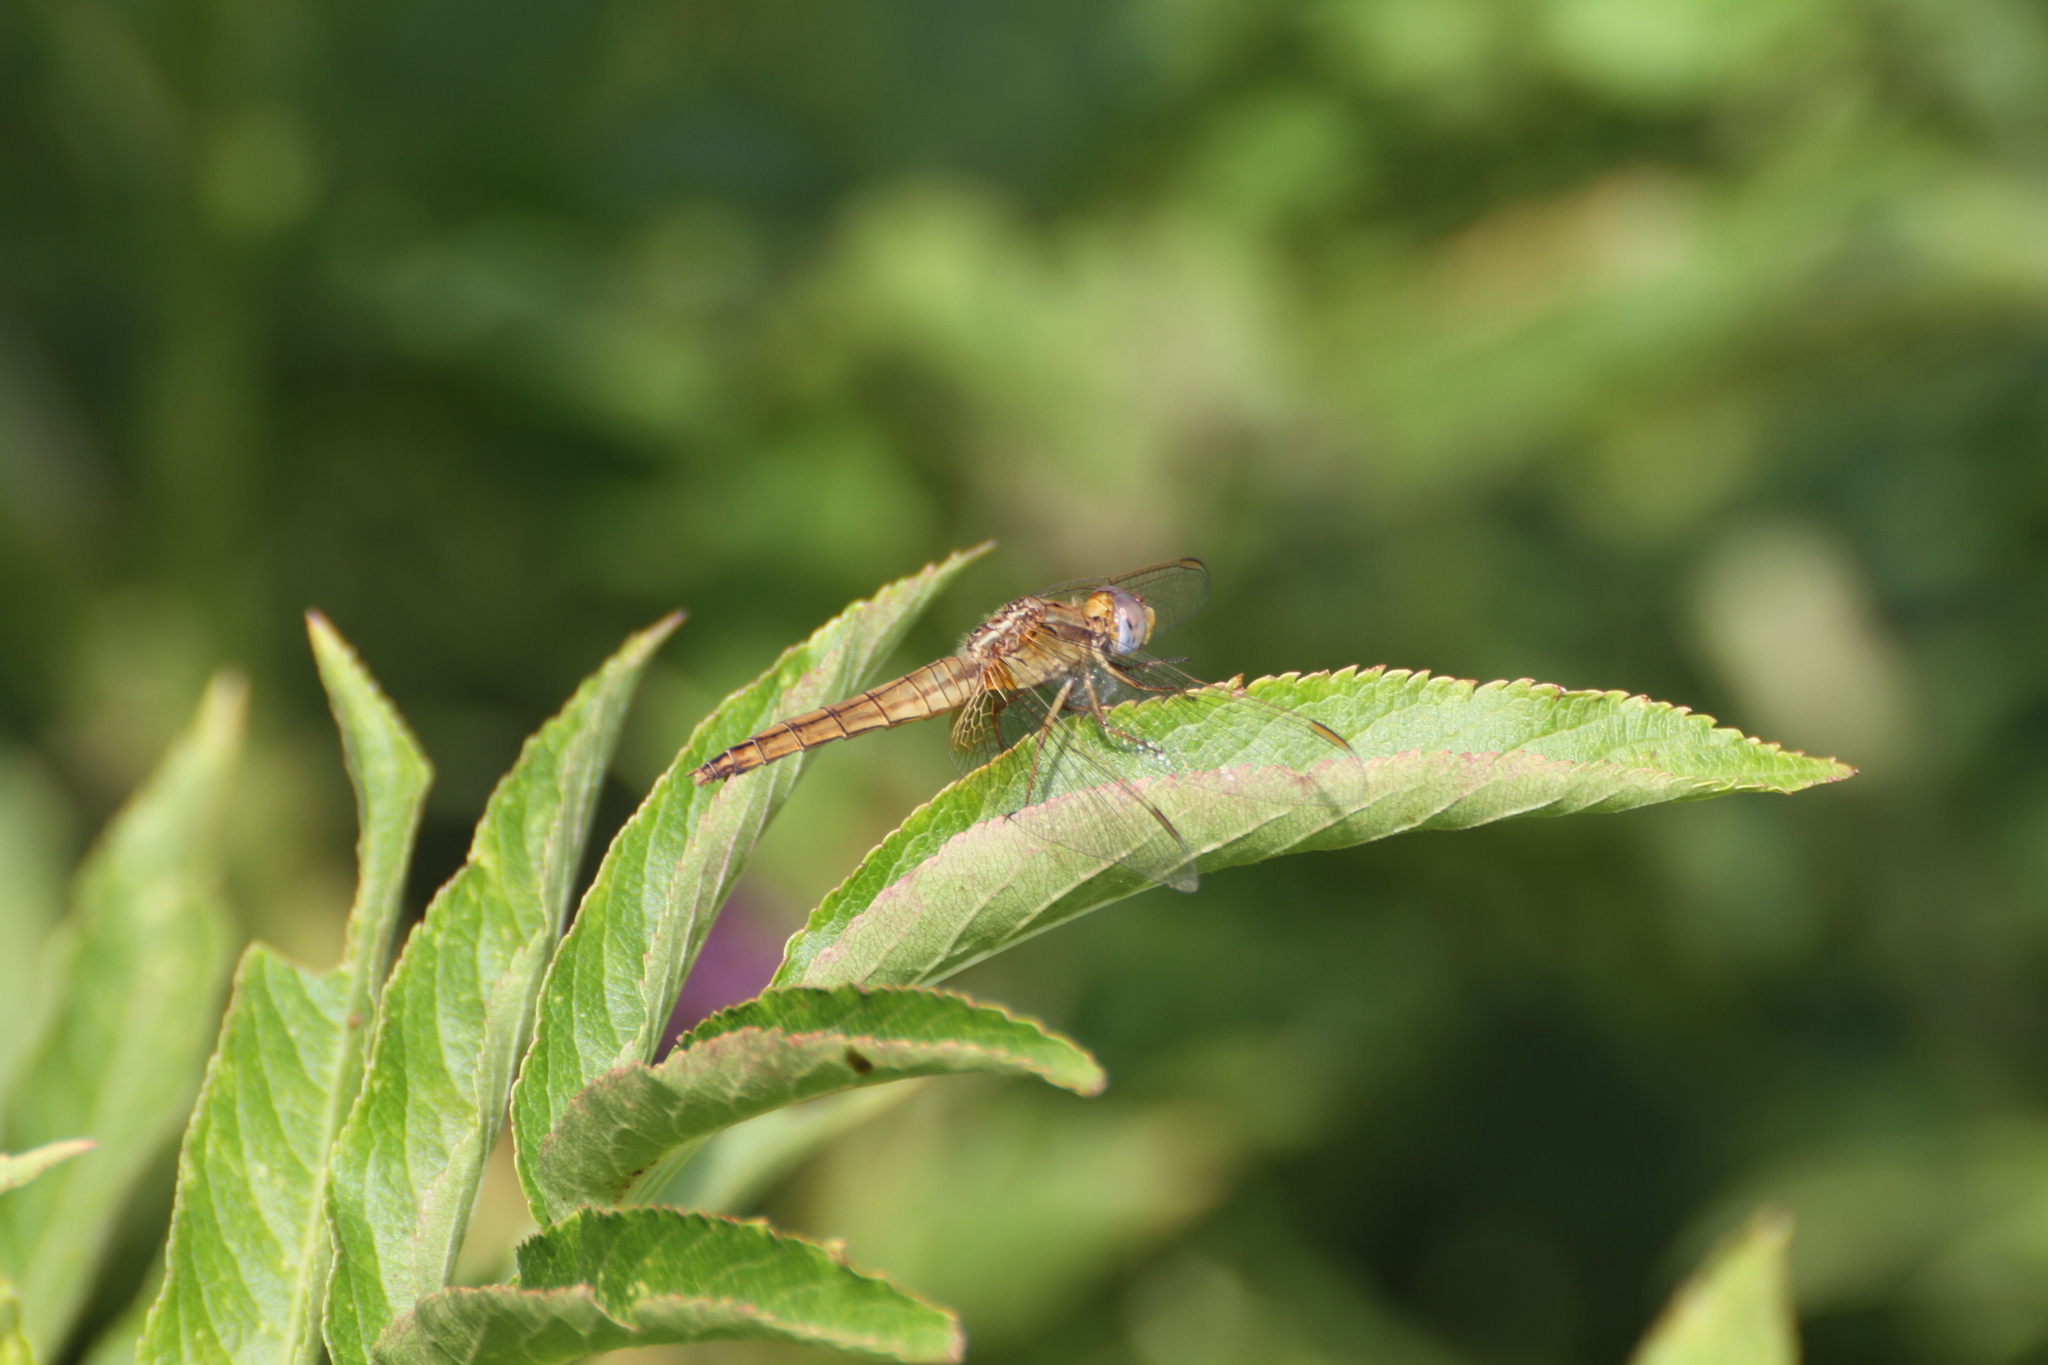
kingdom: Animalia
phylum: Arthropoda
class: Insecta
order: Odonata
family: Libellulidae
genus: Crocothemis
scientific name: Crocothemis erythraea
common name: Scarlet dragonfly
